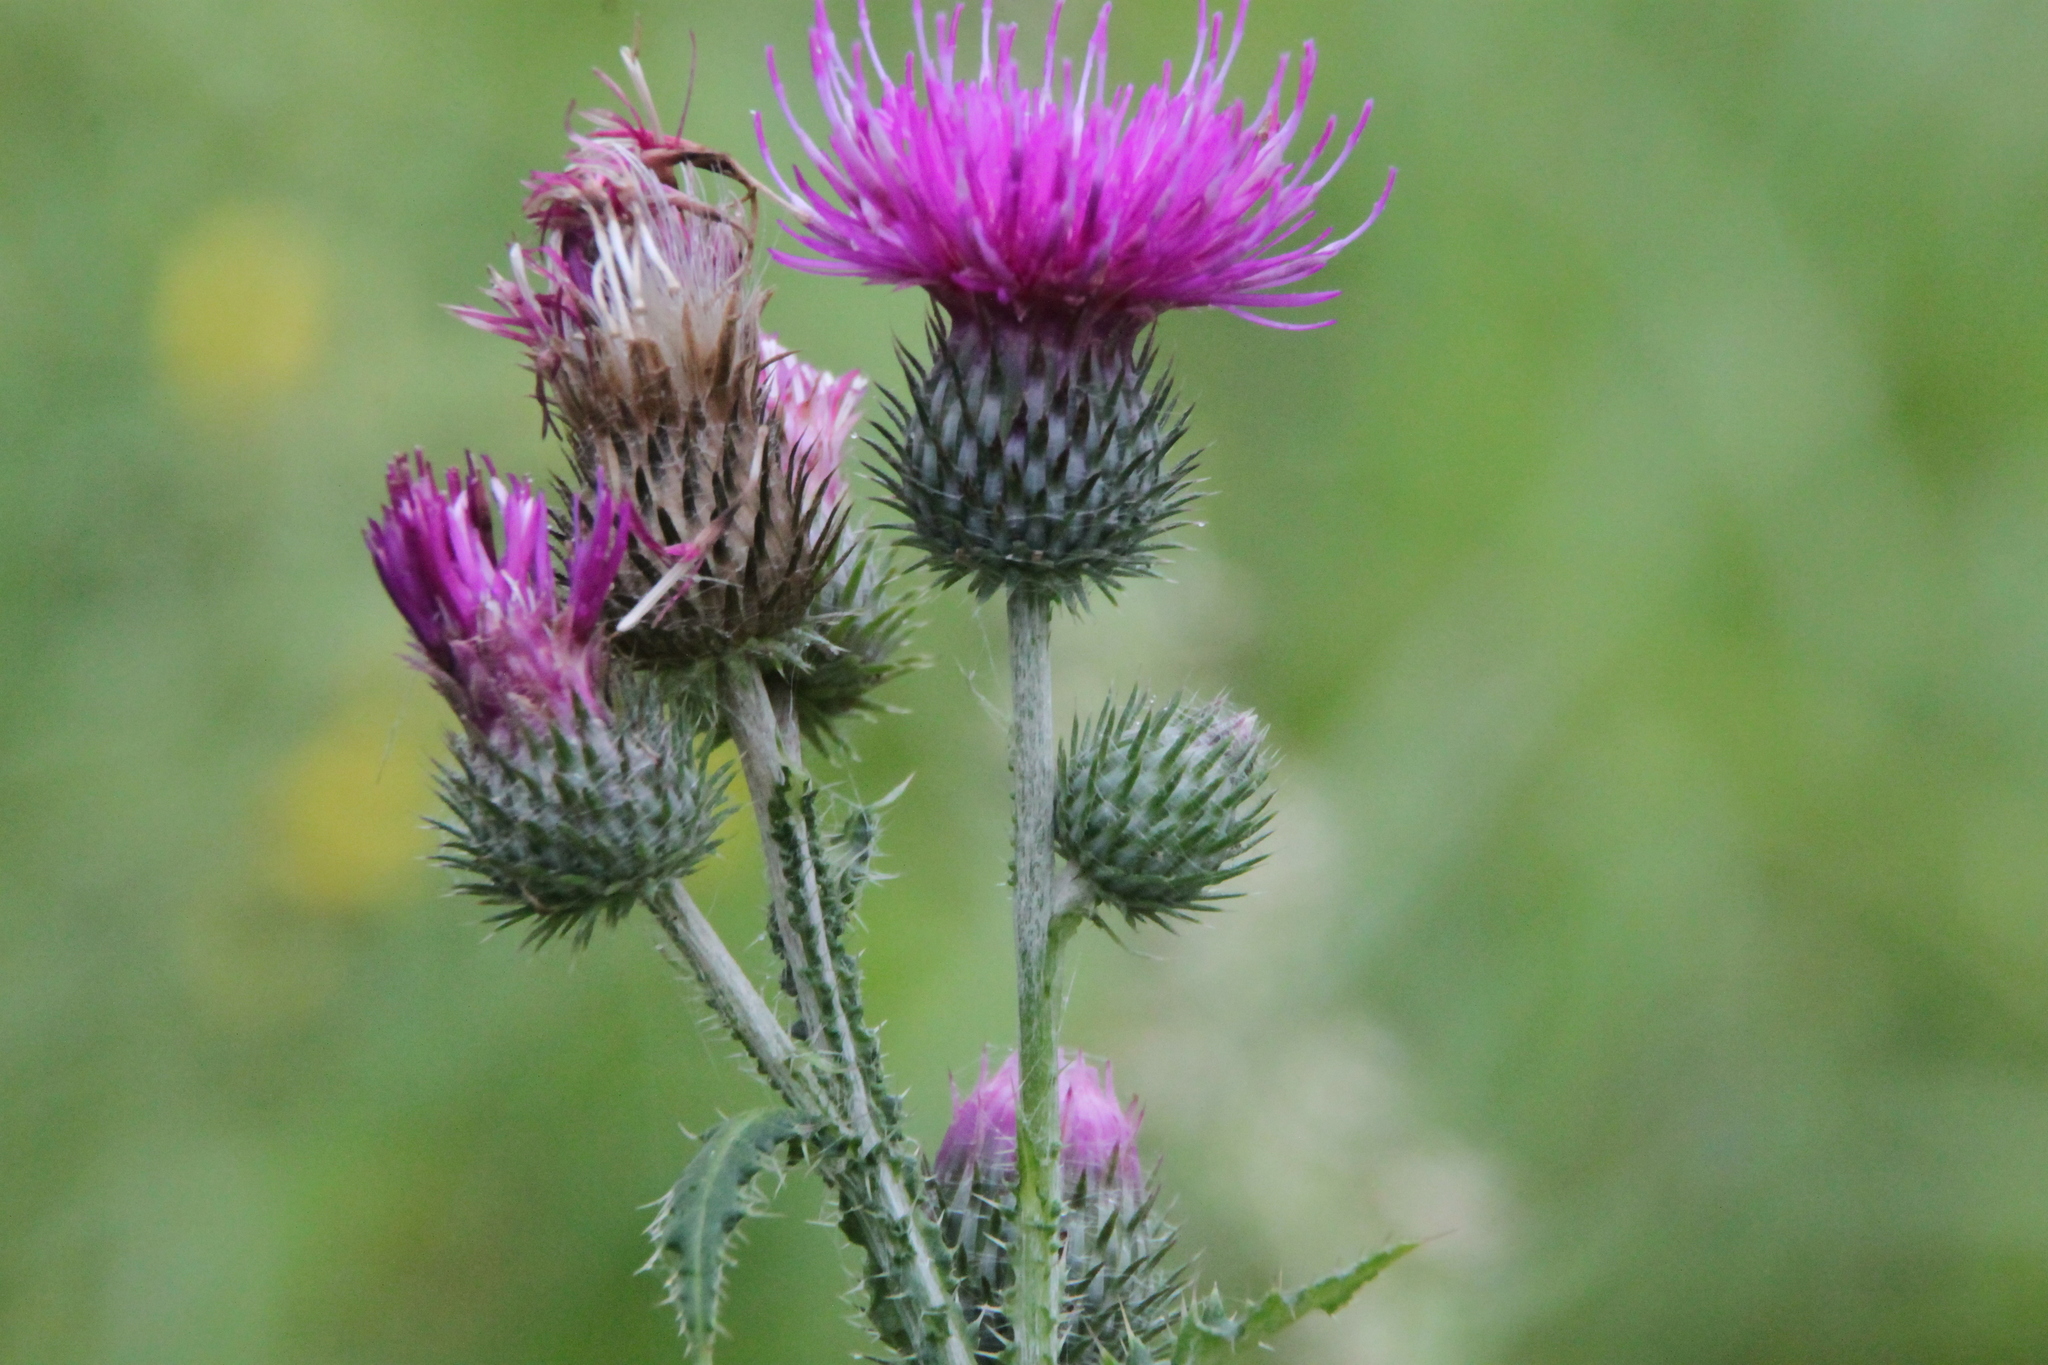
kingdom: Plantae
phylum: Tracheophyta
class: Magnoliopsida
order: Asterales
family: Asteraceae
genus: Carduus
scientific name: Carduus crispus
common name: Welted thistle
